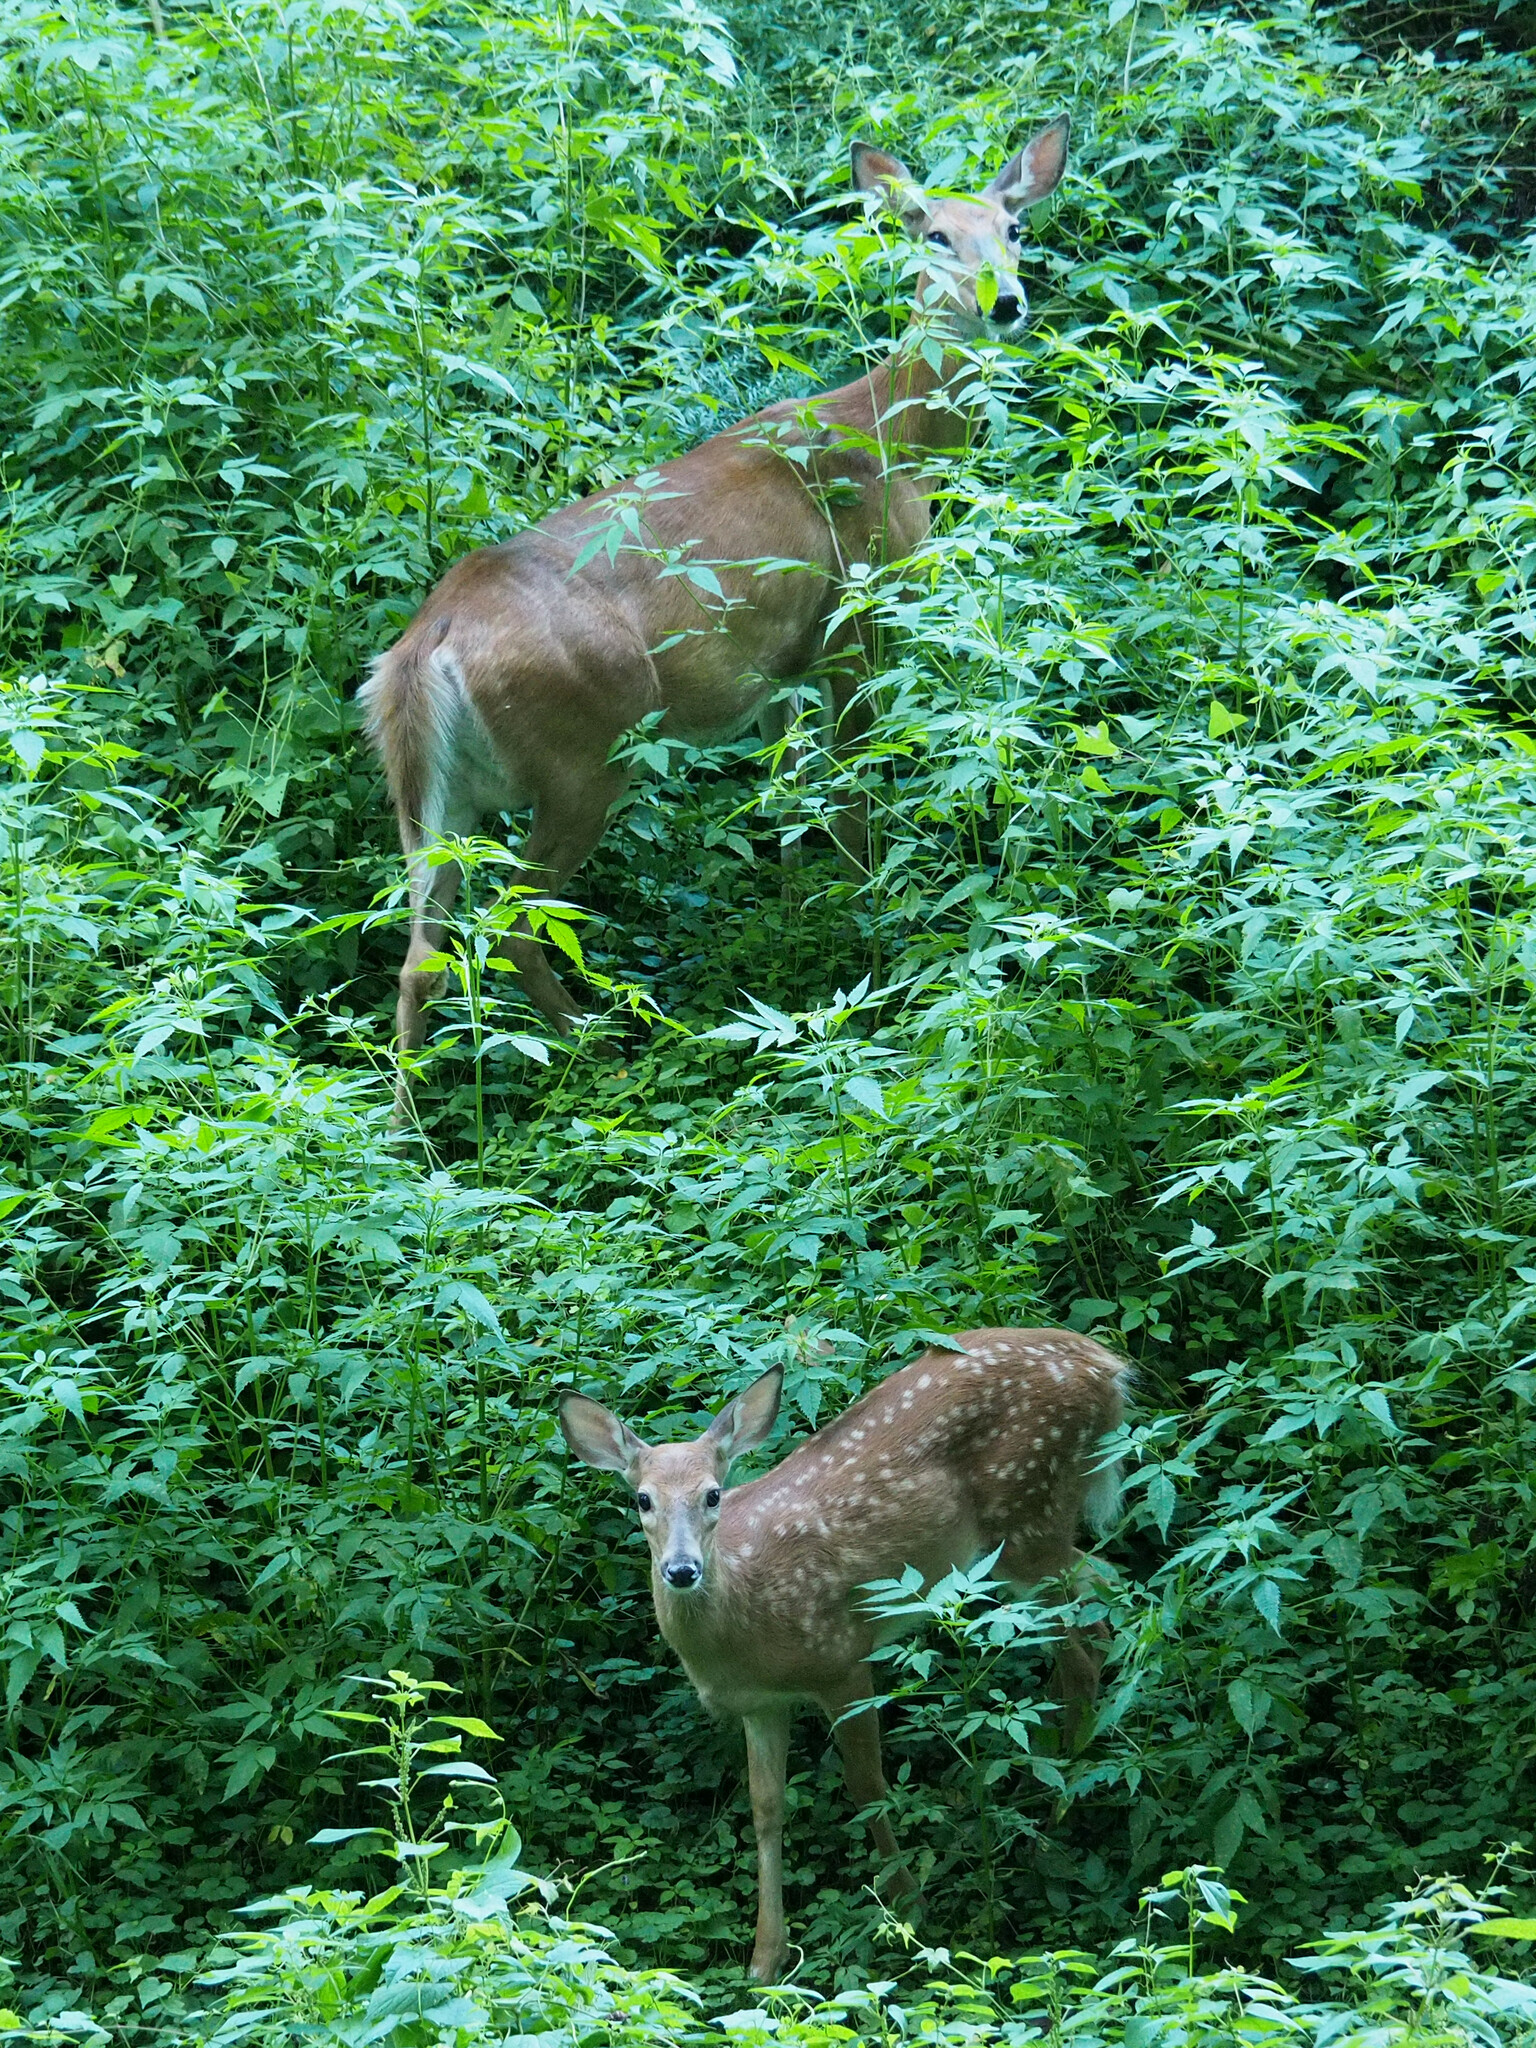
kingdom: Animalia
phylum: Chordata
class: Mammalia
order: Artiodactyla
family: Cervidae
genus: Odocoileus
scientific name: Odocoileus virginianus
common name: White-tailed deer
